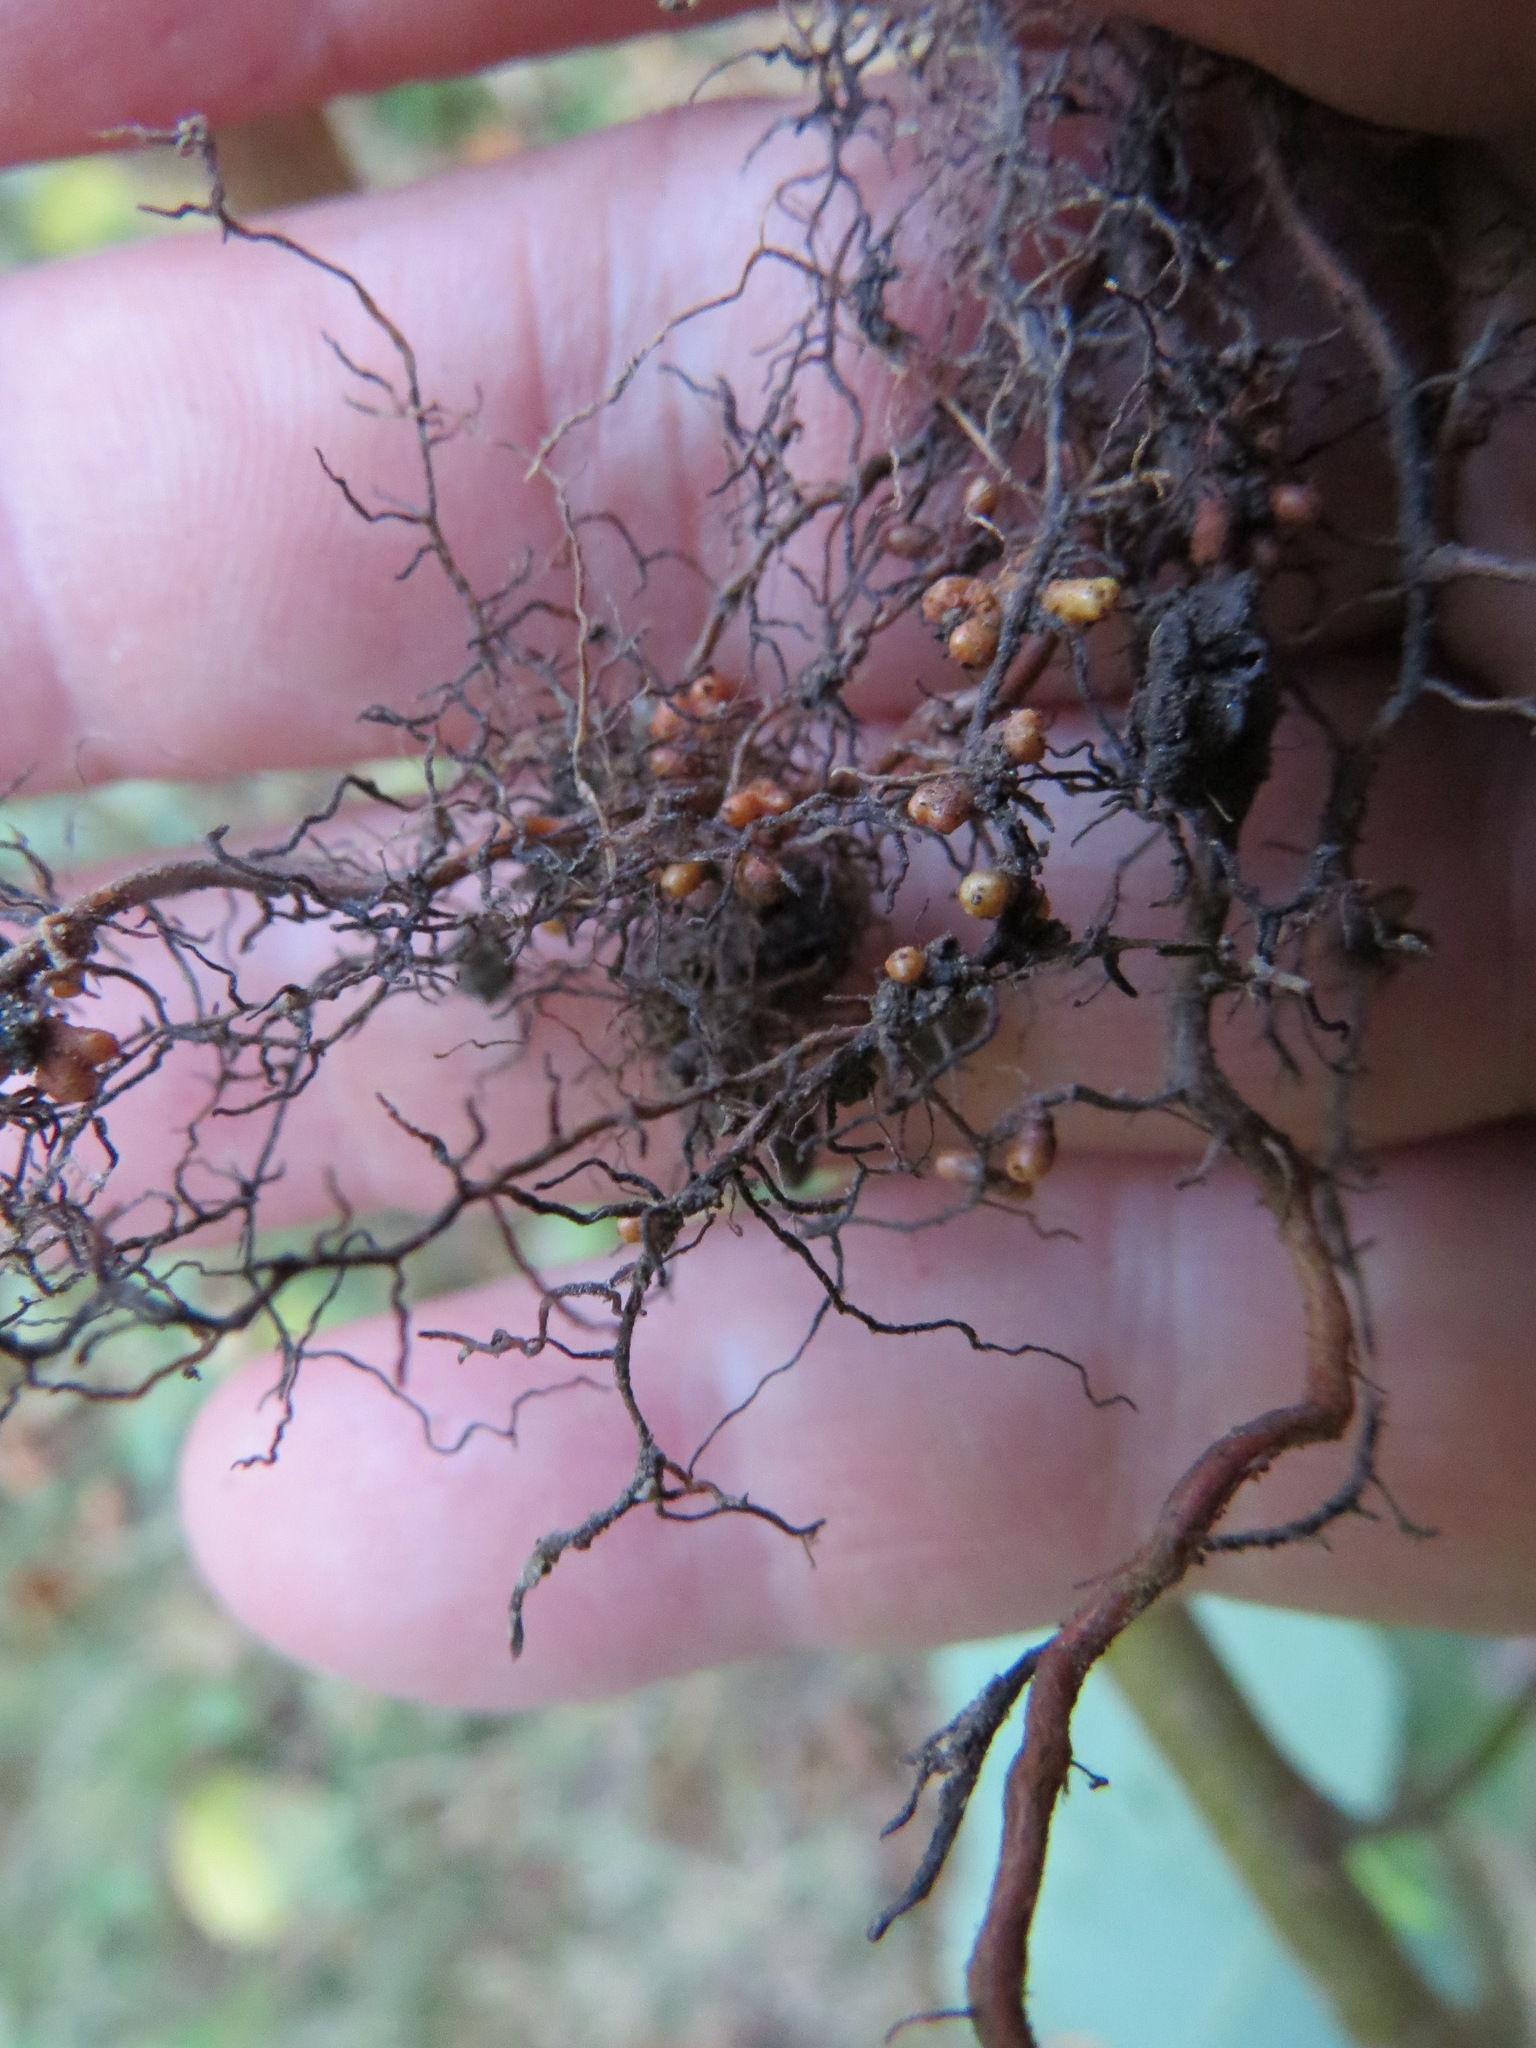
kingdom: Bacteria
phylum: Actinobacteriota
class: Actinomycetia
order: Mycobacteriales
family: Frankiaceae
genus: Frankia
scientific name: Frankia alni
